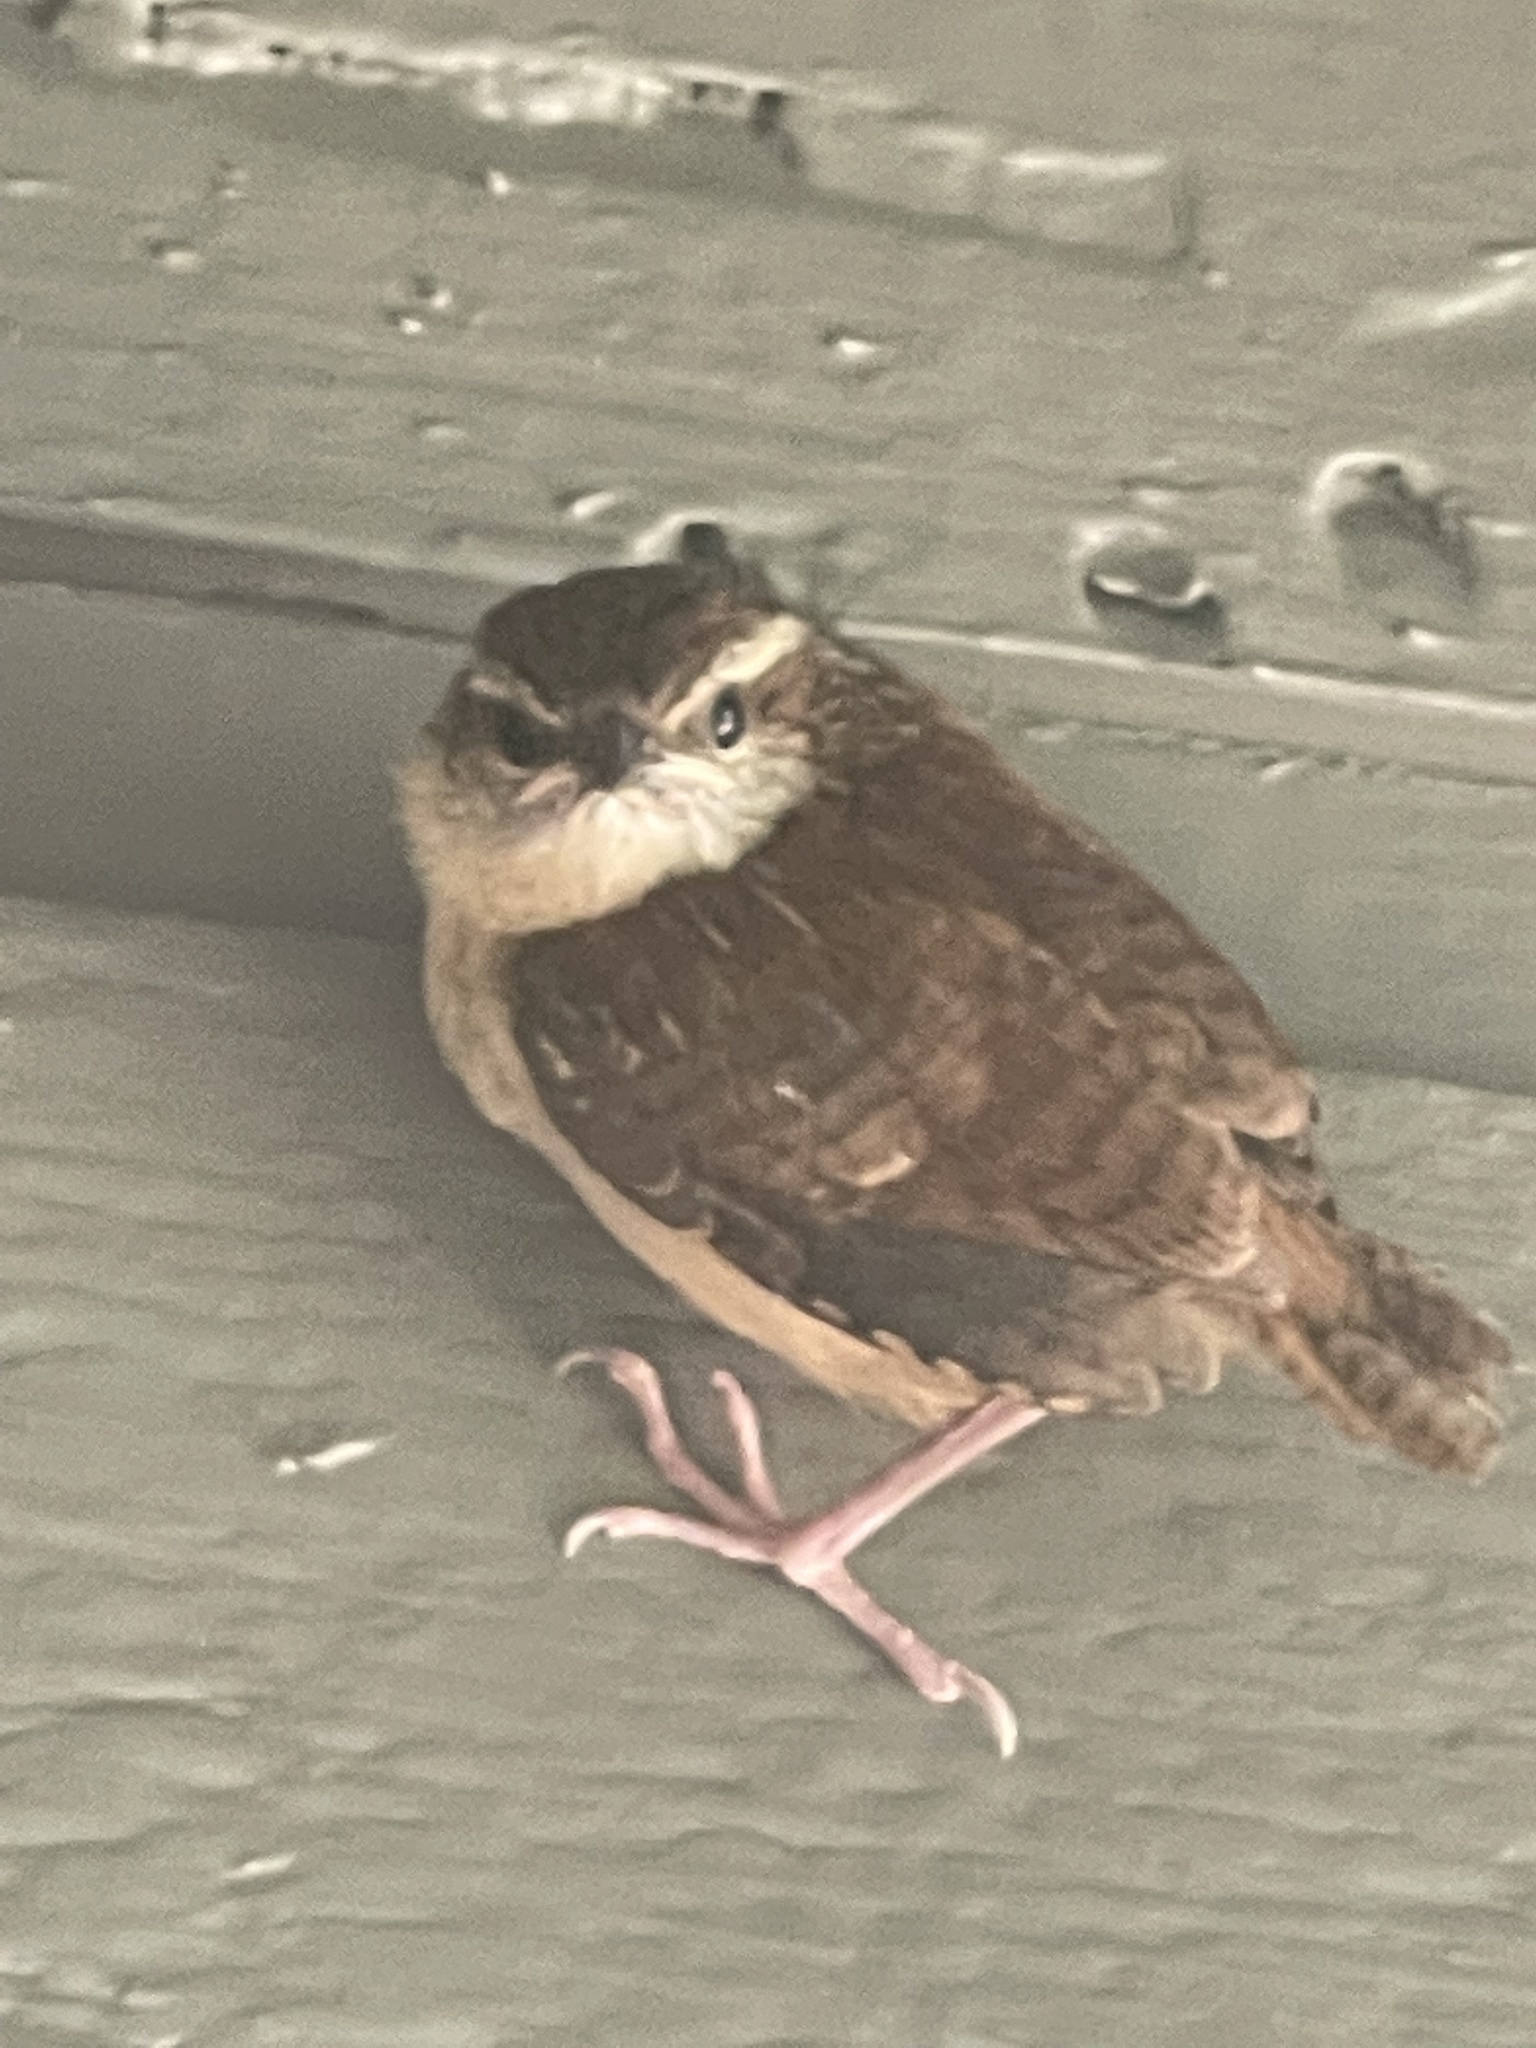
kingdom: Animalia
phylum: Chordata
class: Aves
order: Passeriformes
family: Troglodytidae
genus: Thryothorus
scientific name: Thryothorus ludovicianus
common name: Carolina wren
